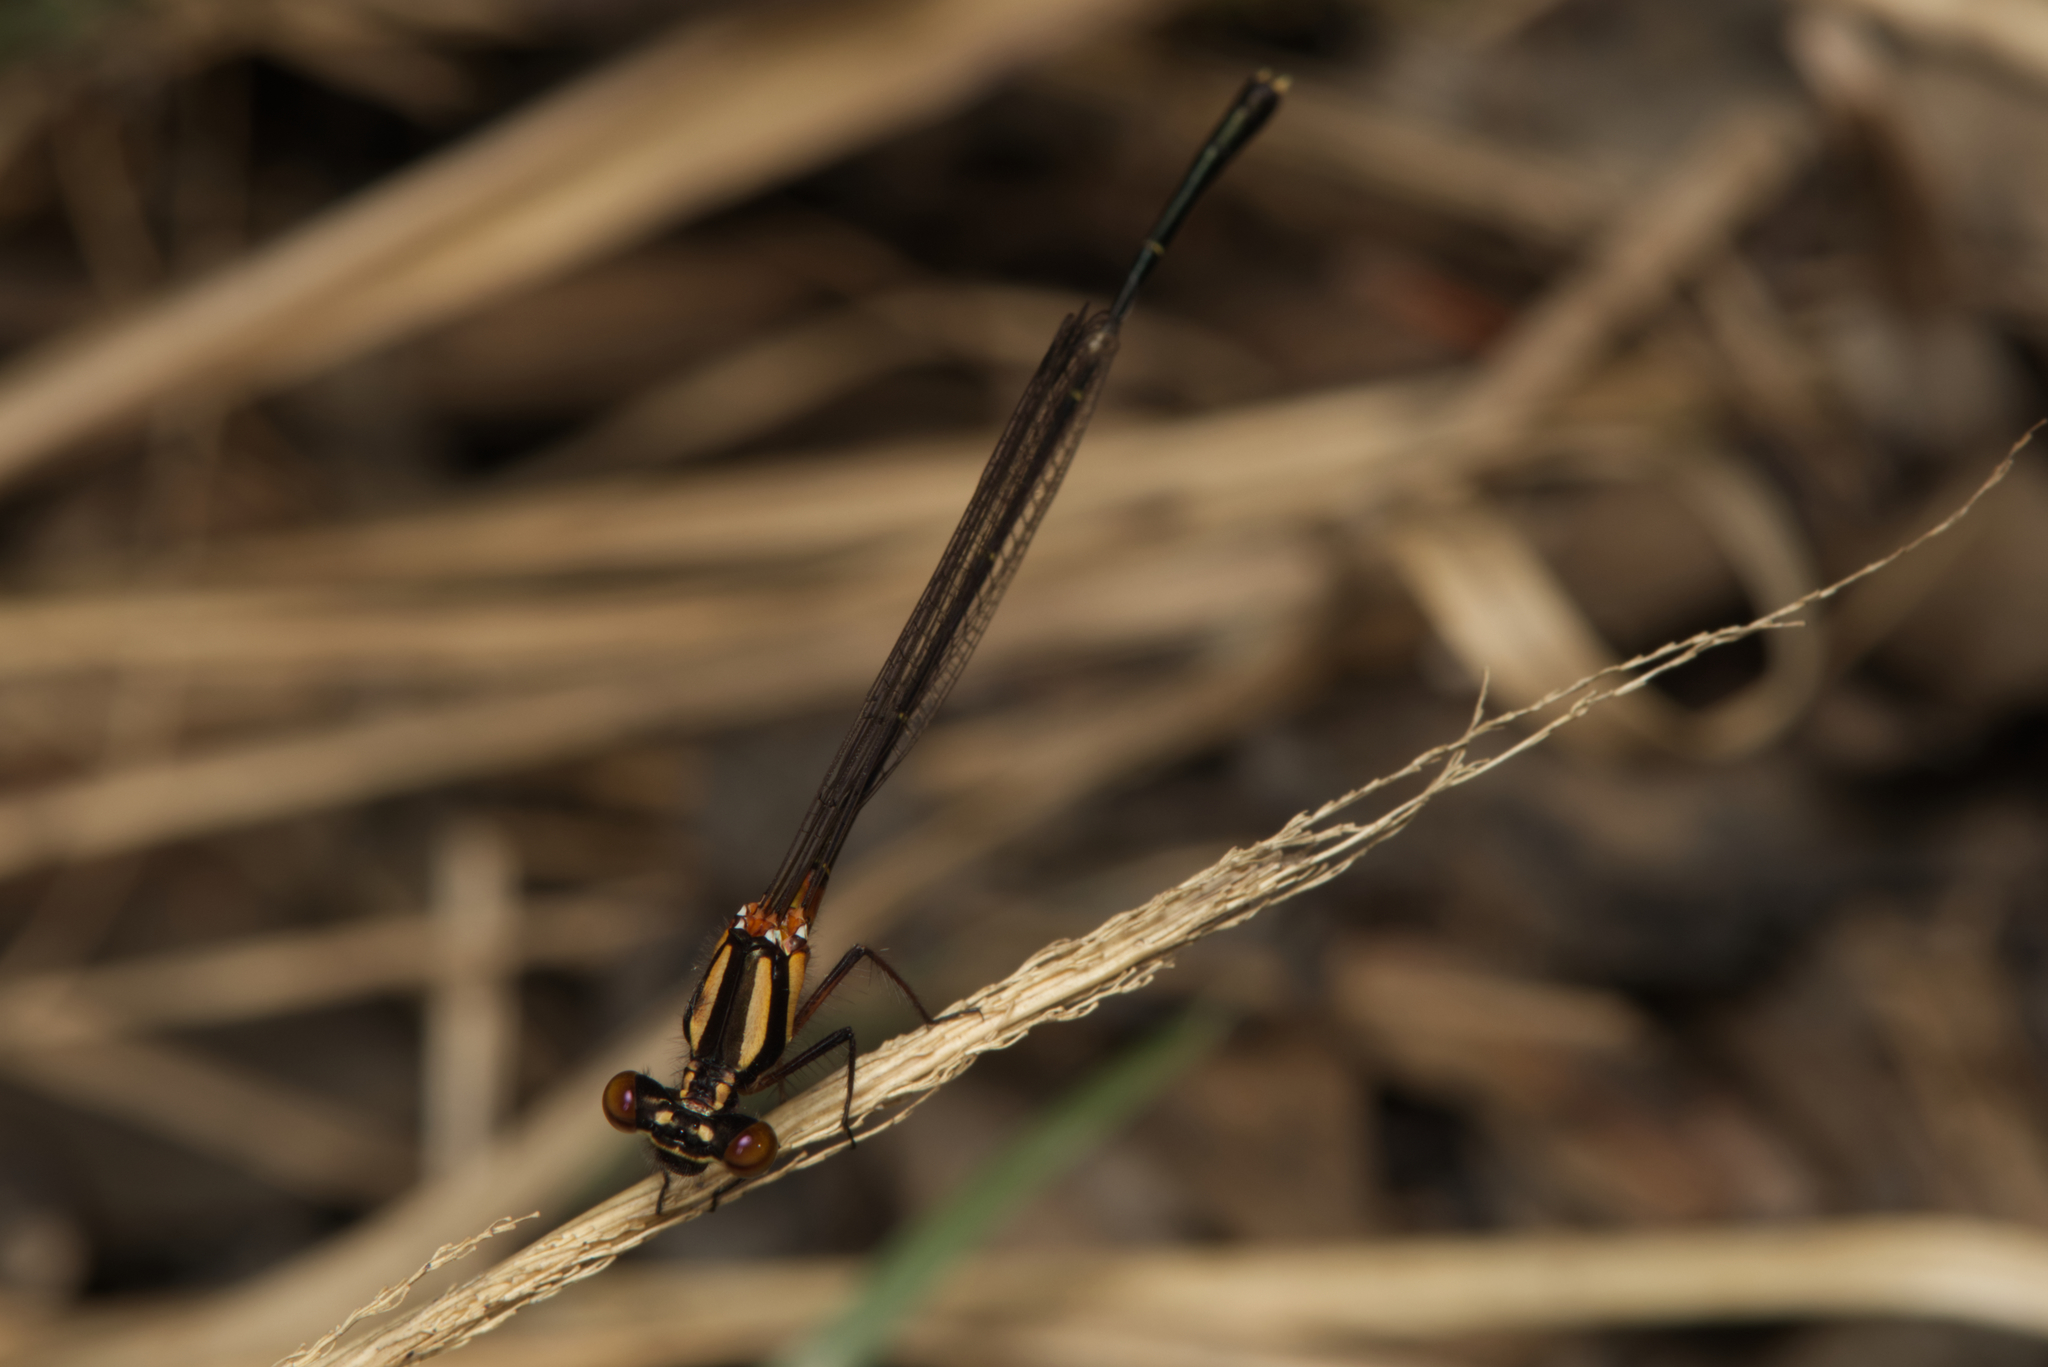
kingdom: Animalia
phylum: Arthropoda
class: Insecta
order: Odonata
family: Platycnemididae
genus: Nososticta
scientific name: Nososticta solida
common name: Orange threadtail
